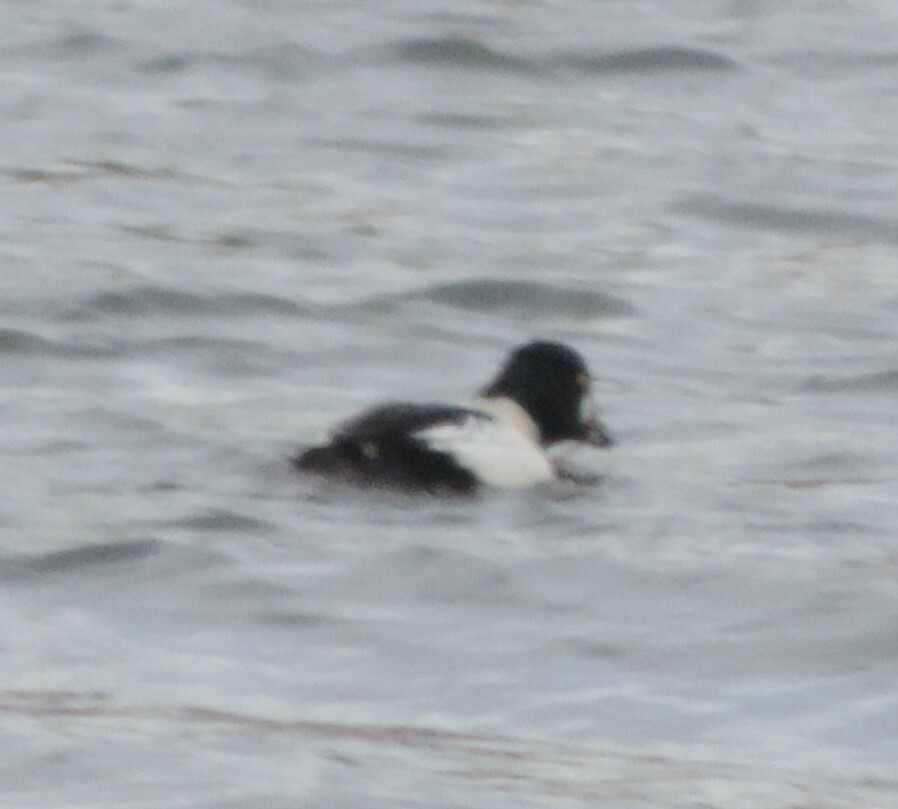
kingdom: Animalia
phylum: Chordata
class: Aves
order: Anseriformes
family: Anatidae
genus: Bucephala
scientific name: Bucephala clangula
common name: Common goldeneye
